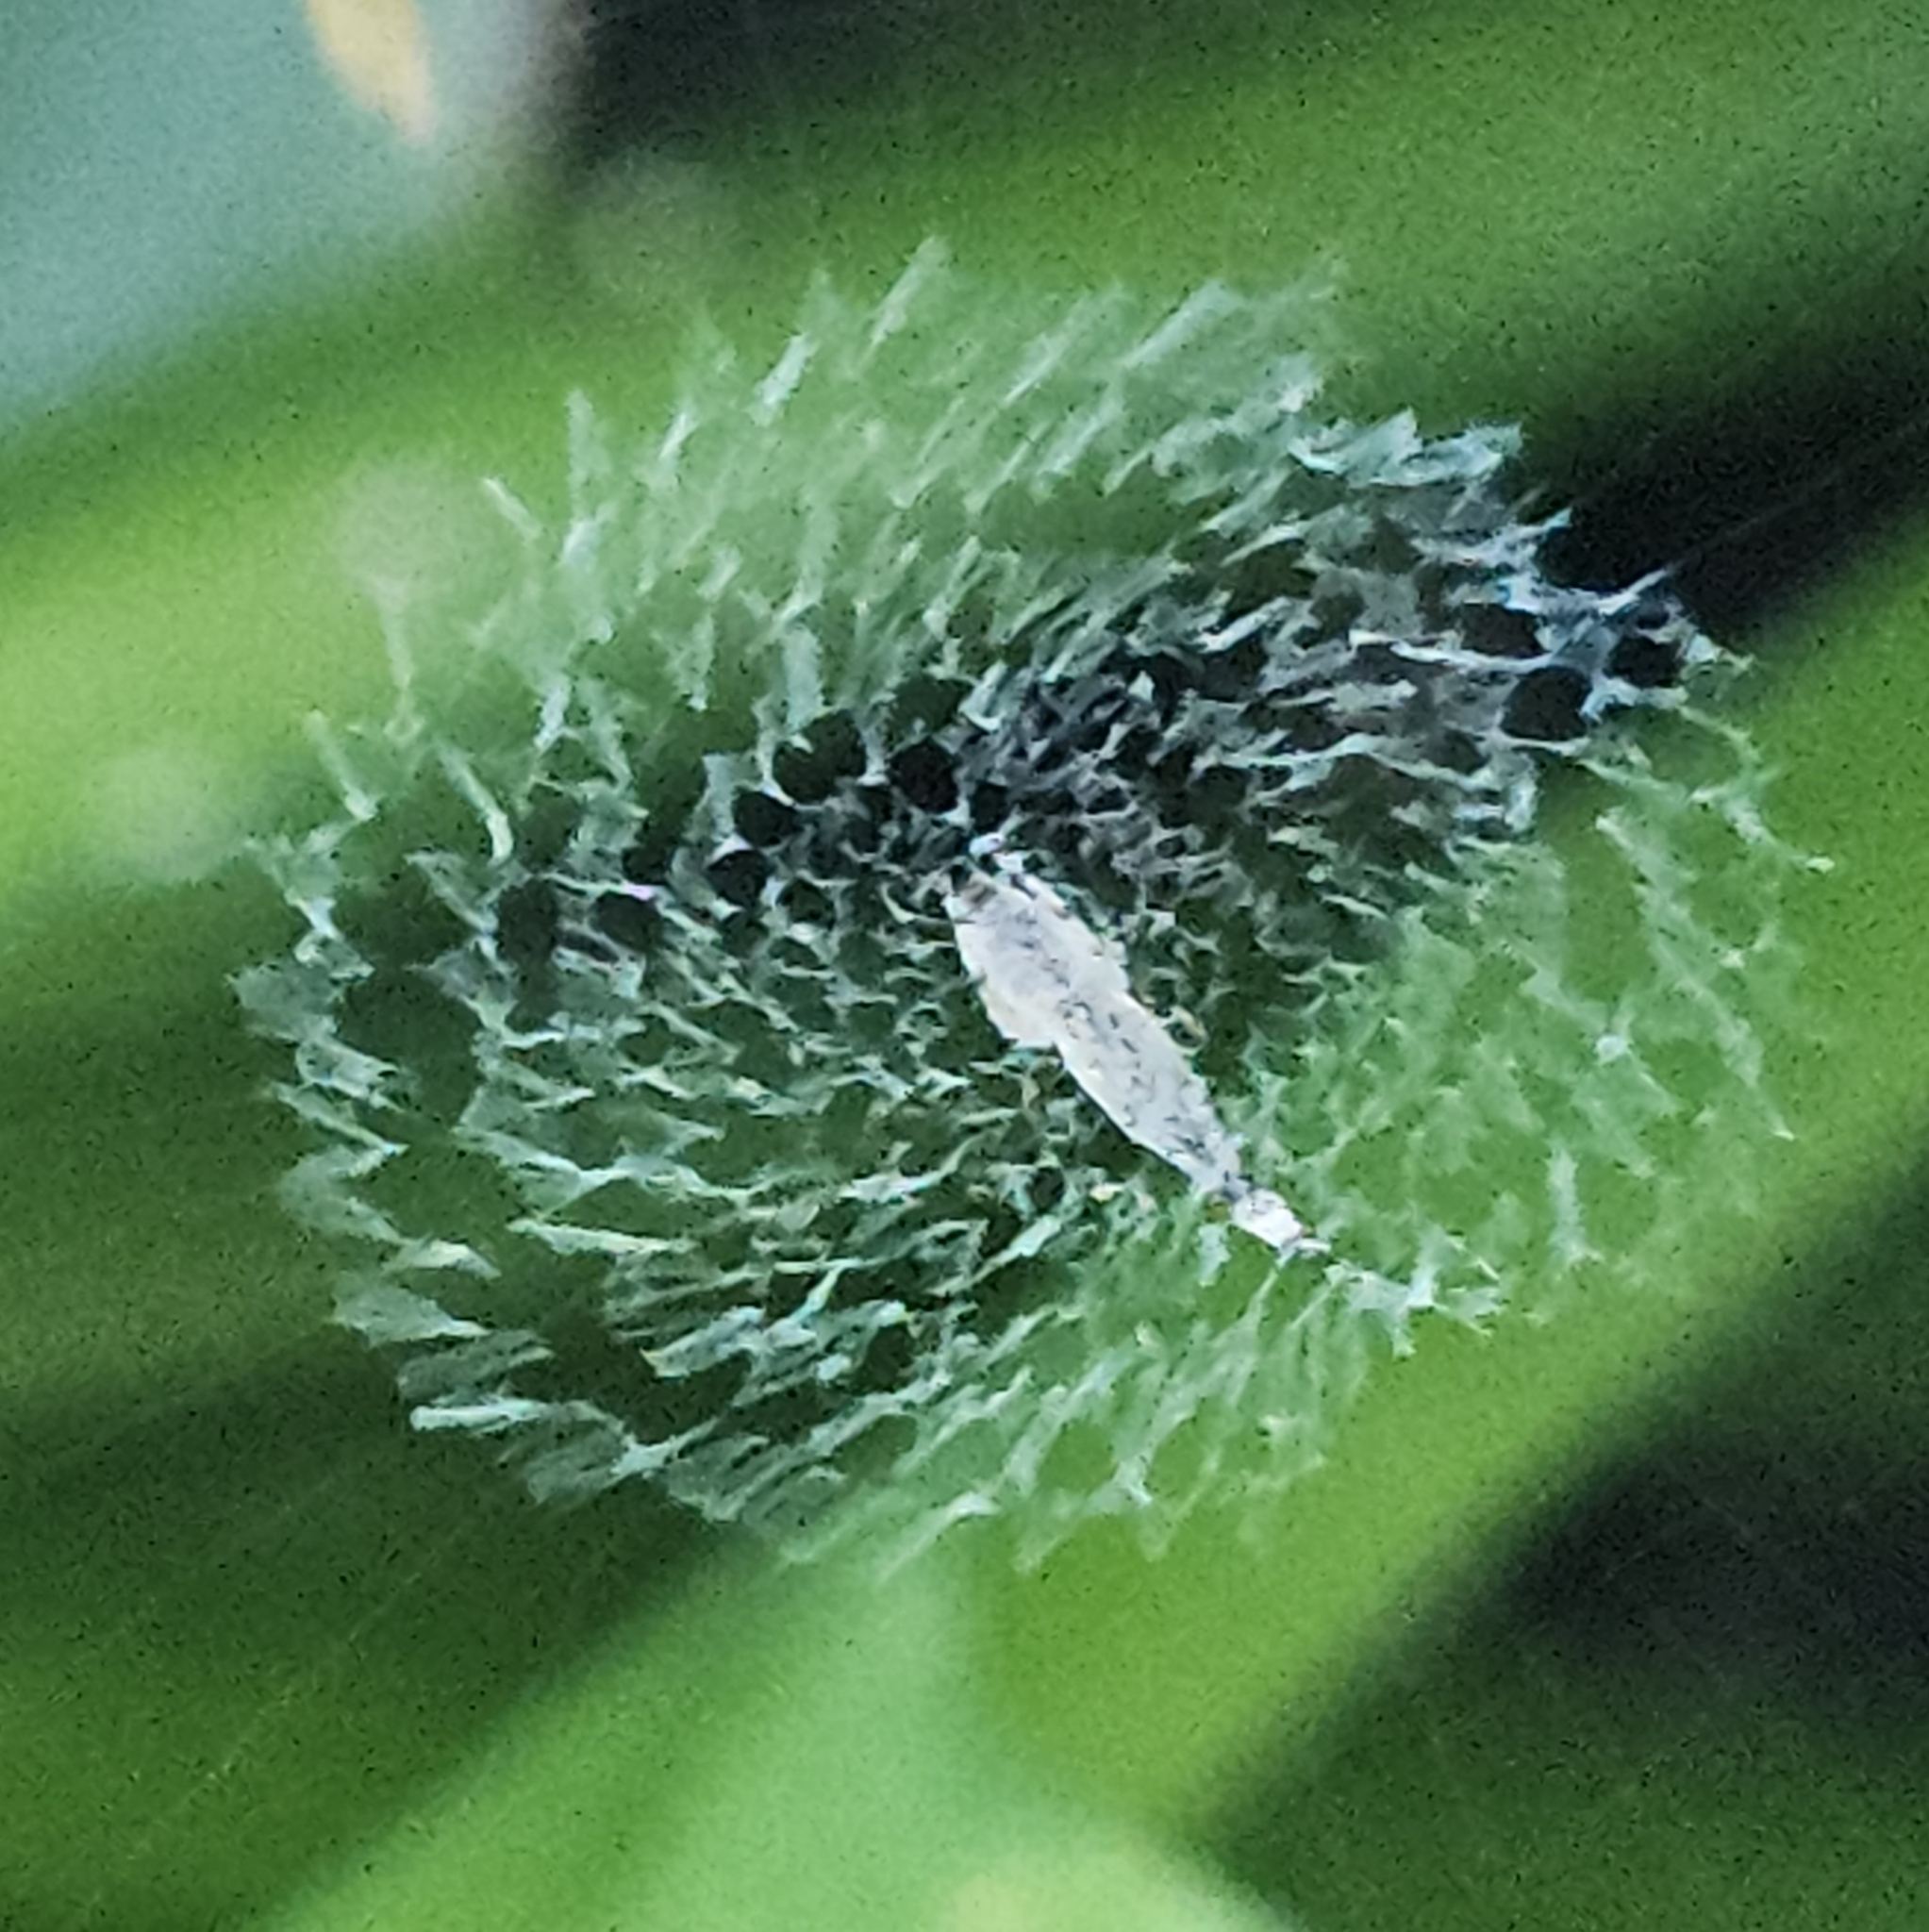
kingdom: Animalia
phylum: Arthropoda
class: Arachnida
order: Araneae
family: Uloboridae
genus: Uloborus
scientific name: Uloborus glomosus
